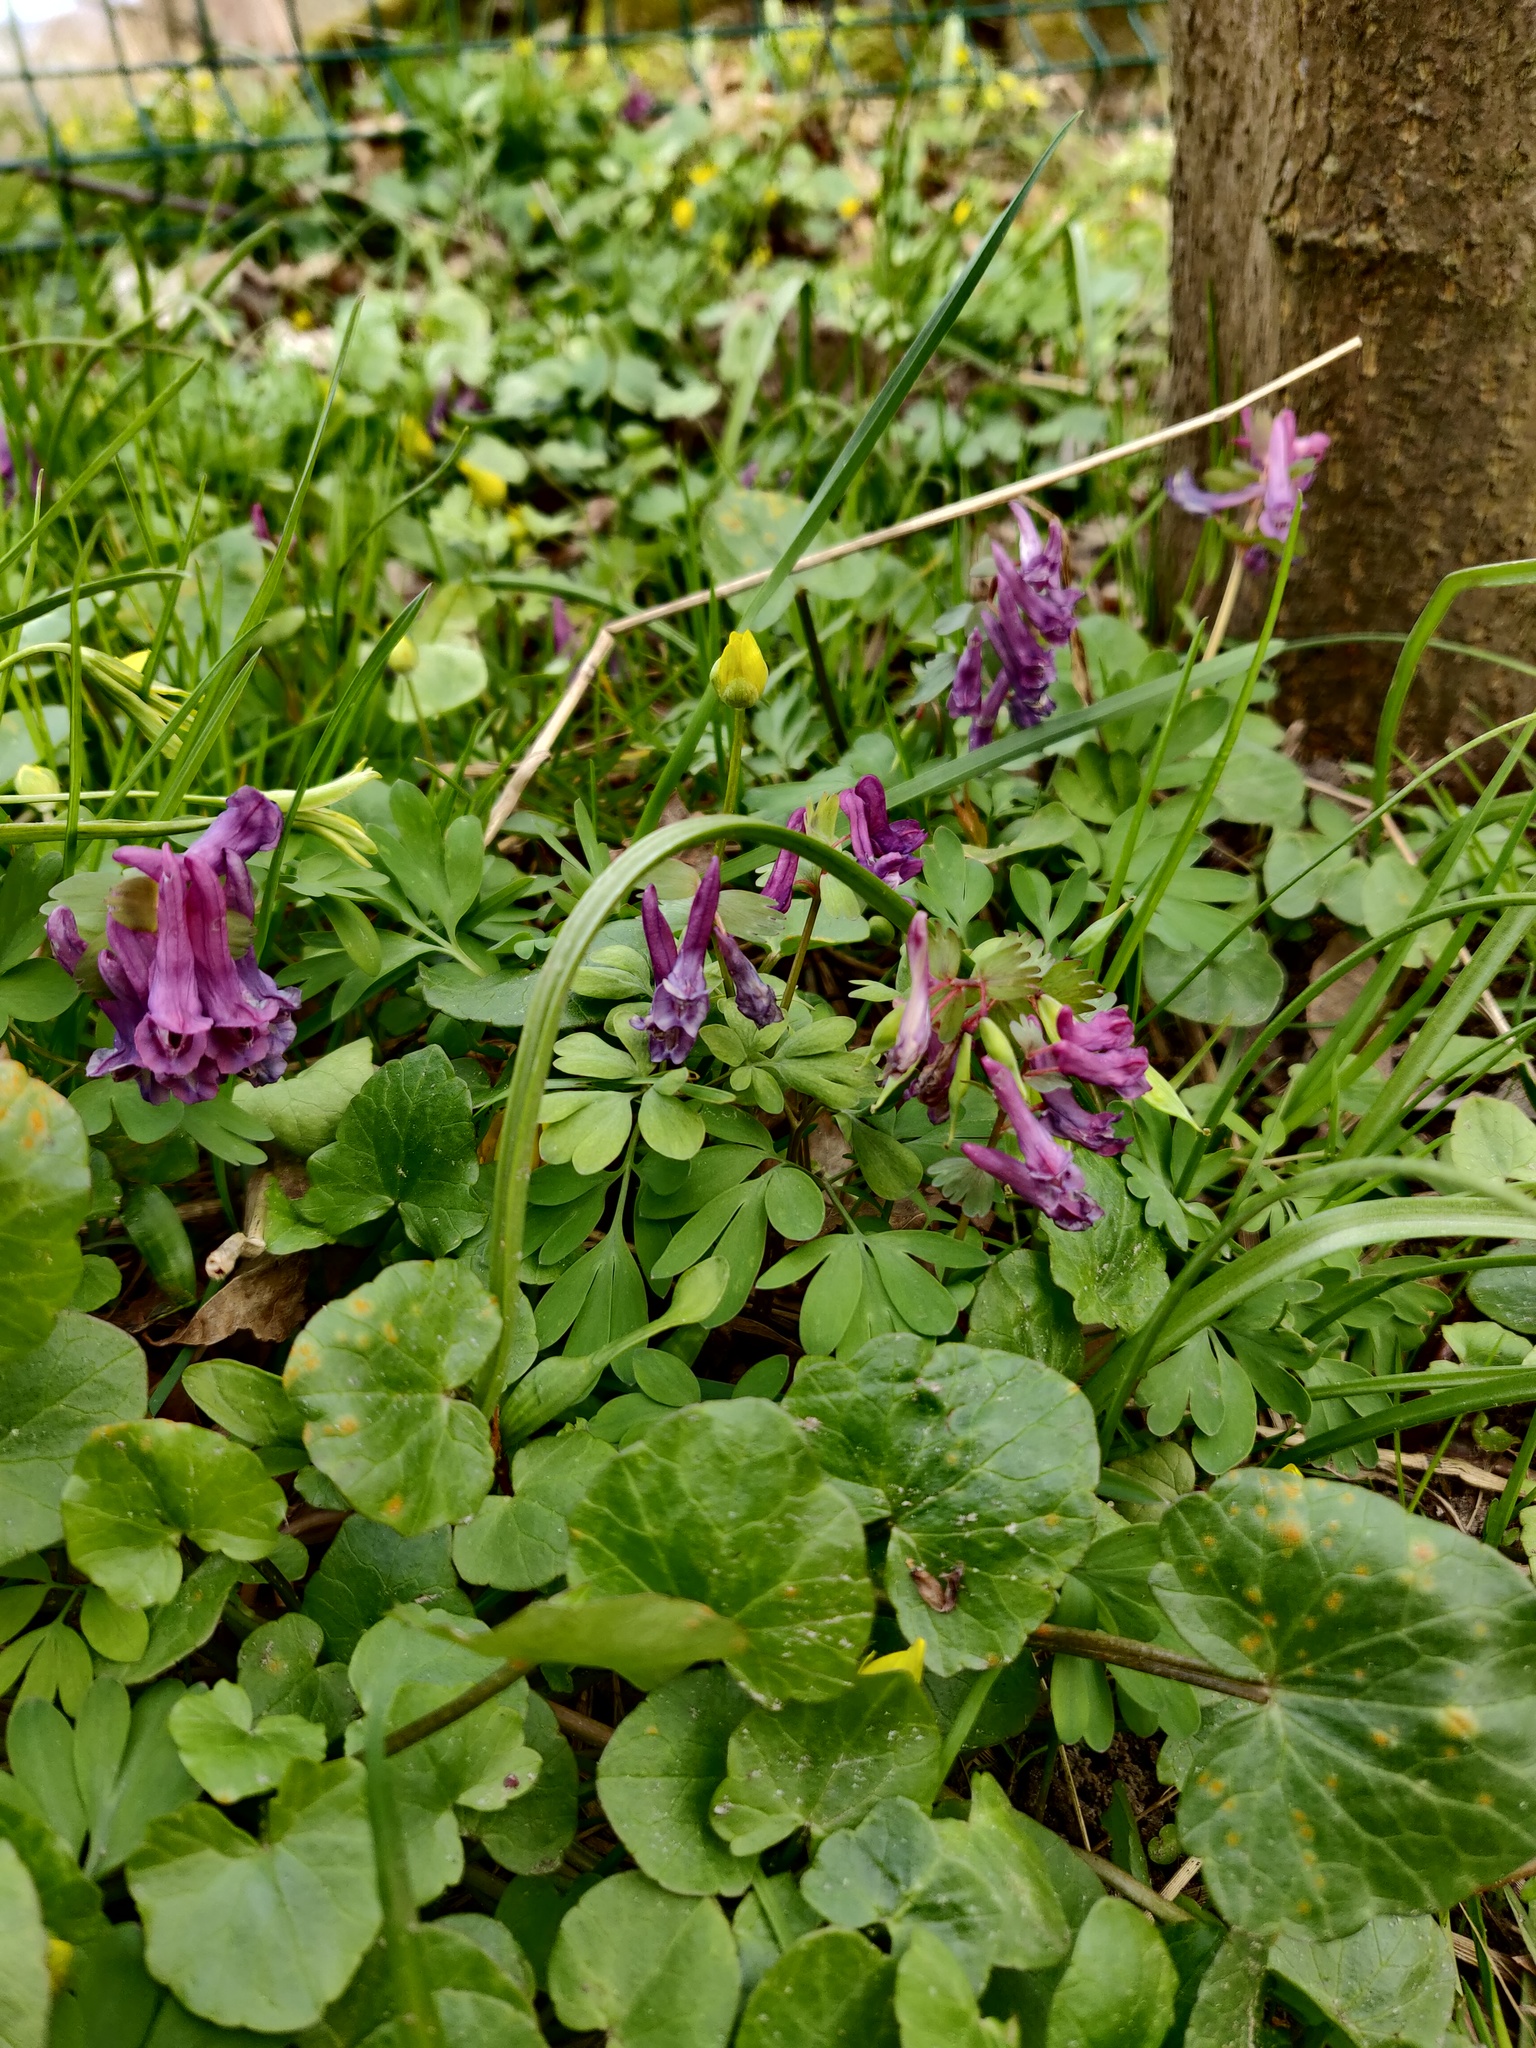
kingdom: Plantae
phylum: Tracheophyta
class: Magnoliopsida
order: Ranunculales
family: Papaveraceae
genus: Corydalis
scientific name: Corydalis solida
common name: Bird-in-a-bush
